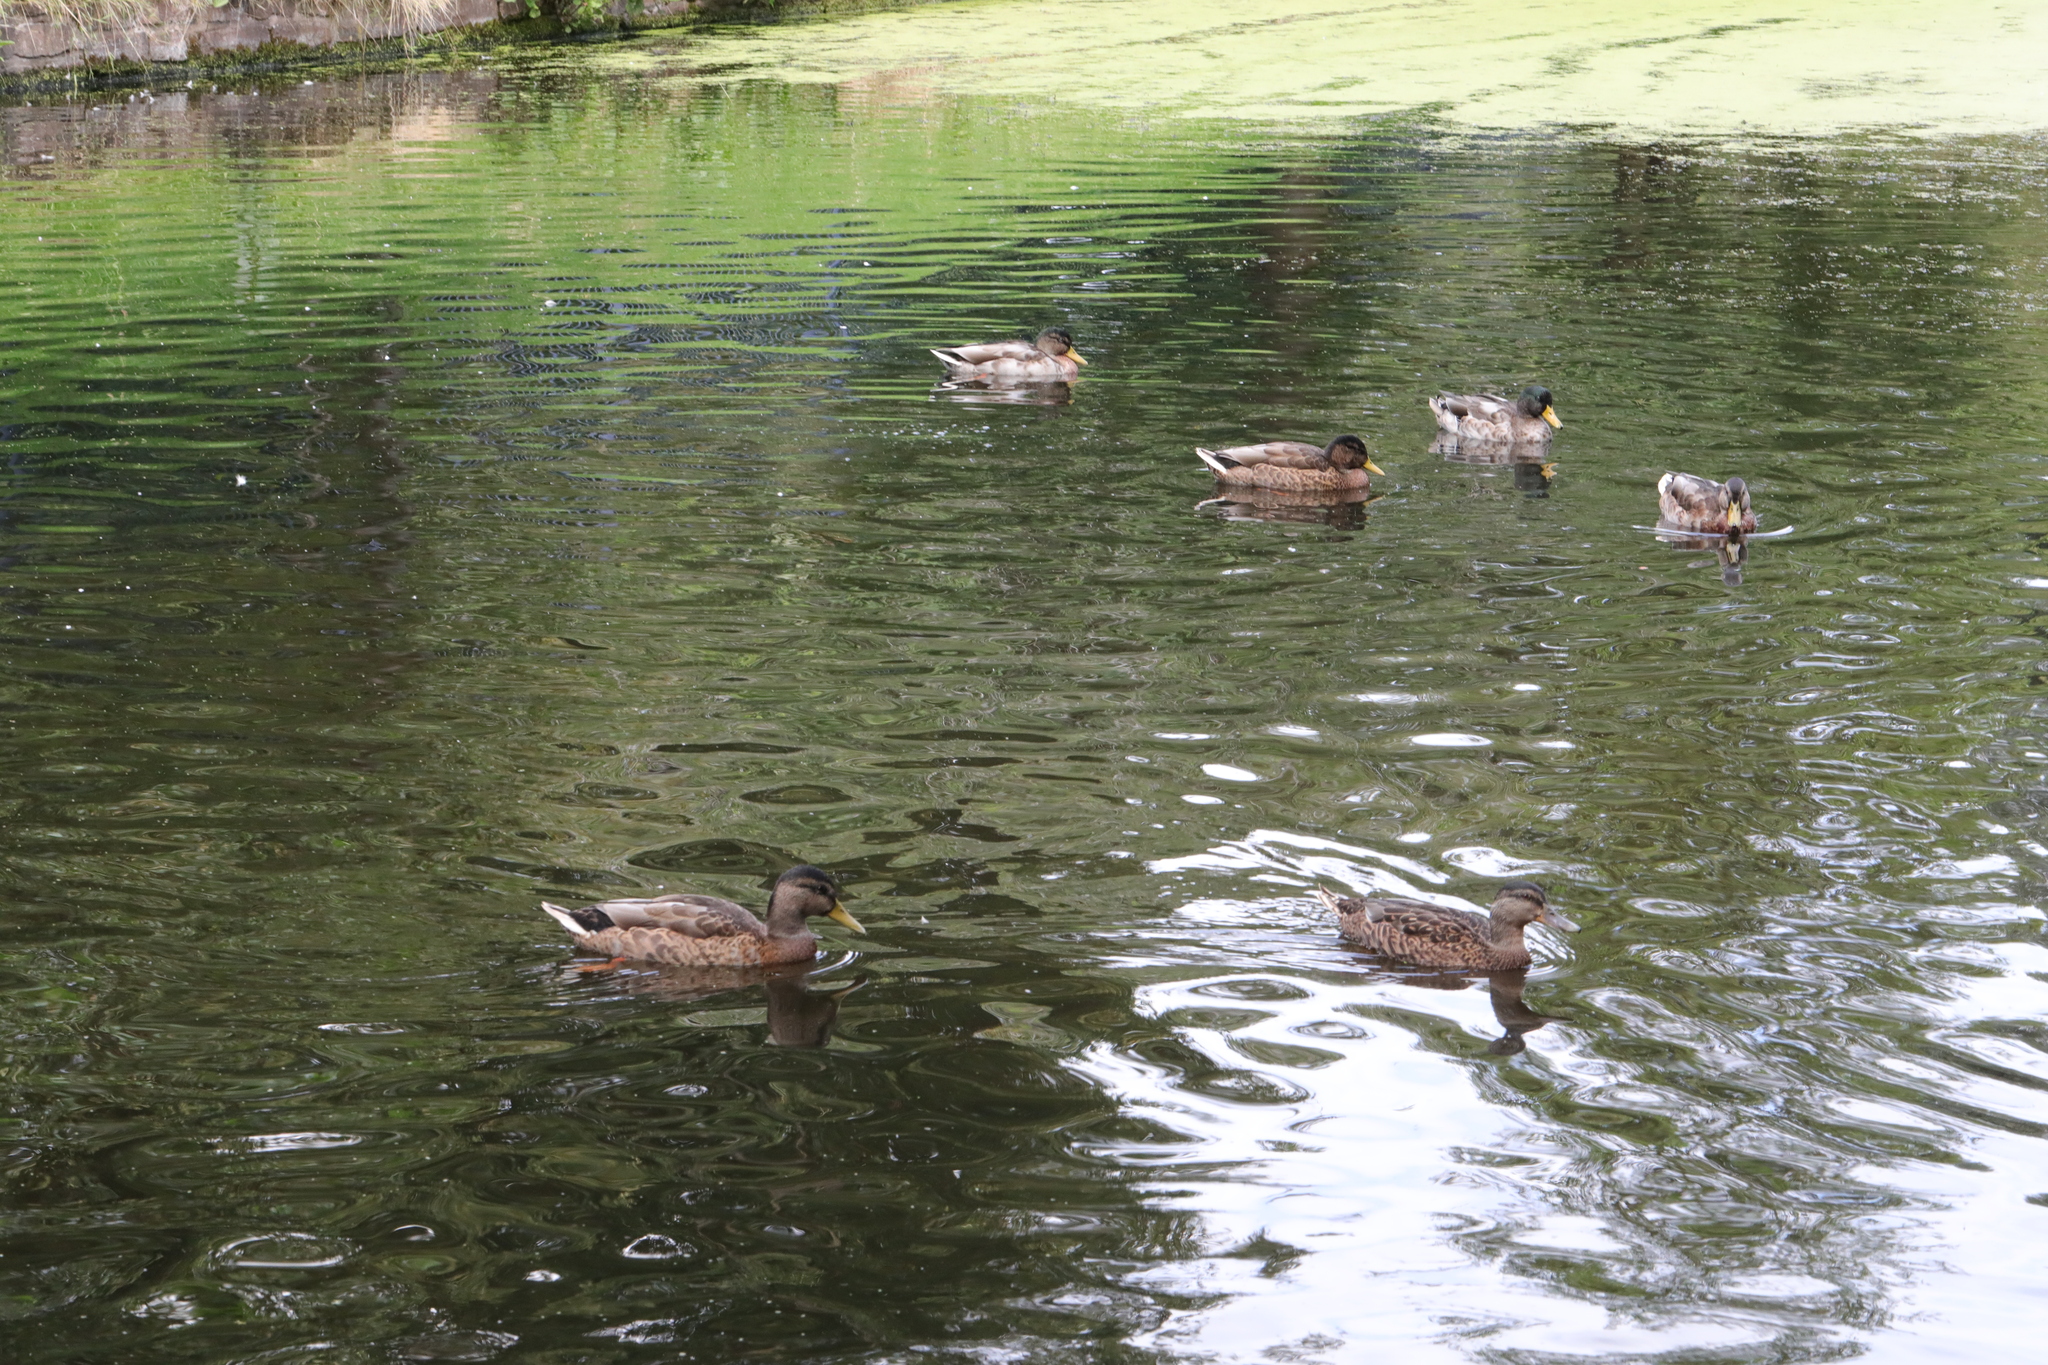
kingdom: Animalia
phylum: Chordata
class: Aves
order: Anseriformes
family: Anatidae
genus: Anas
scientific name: Anas platyrhynchos
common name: Mallard
